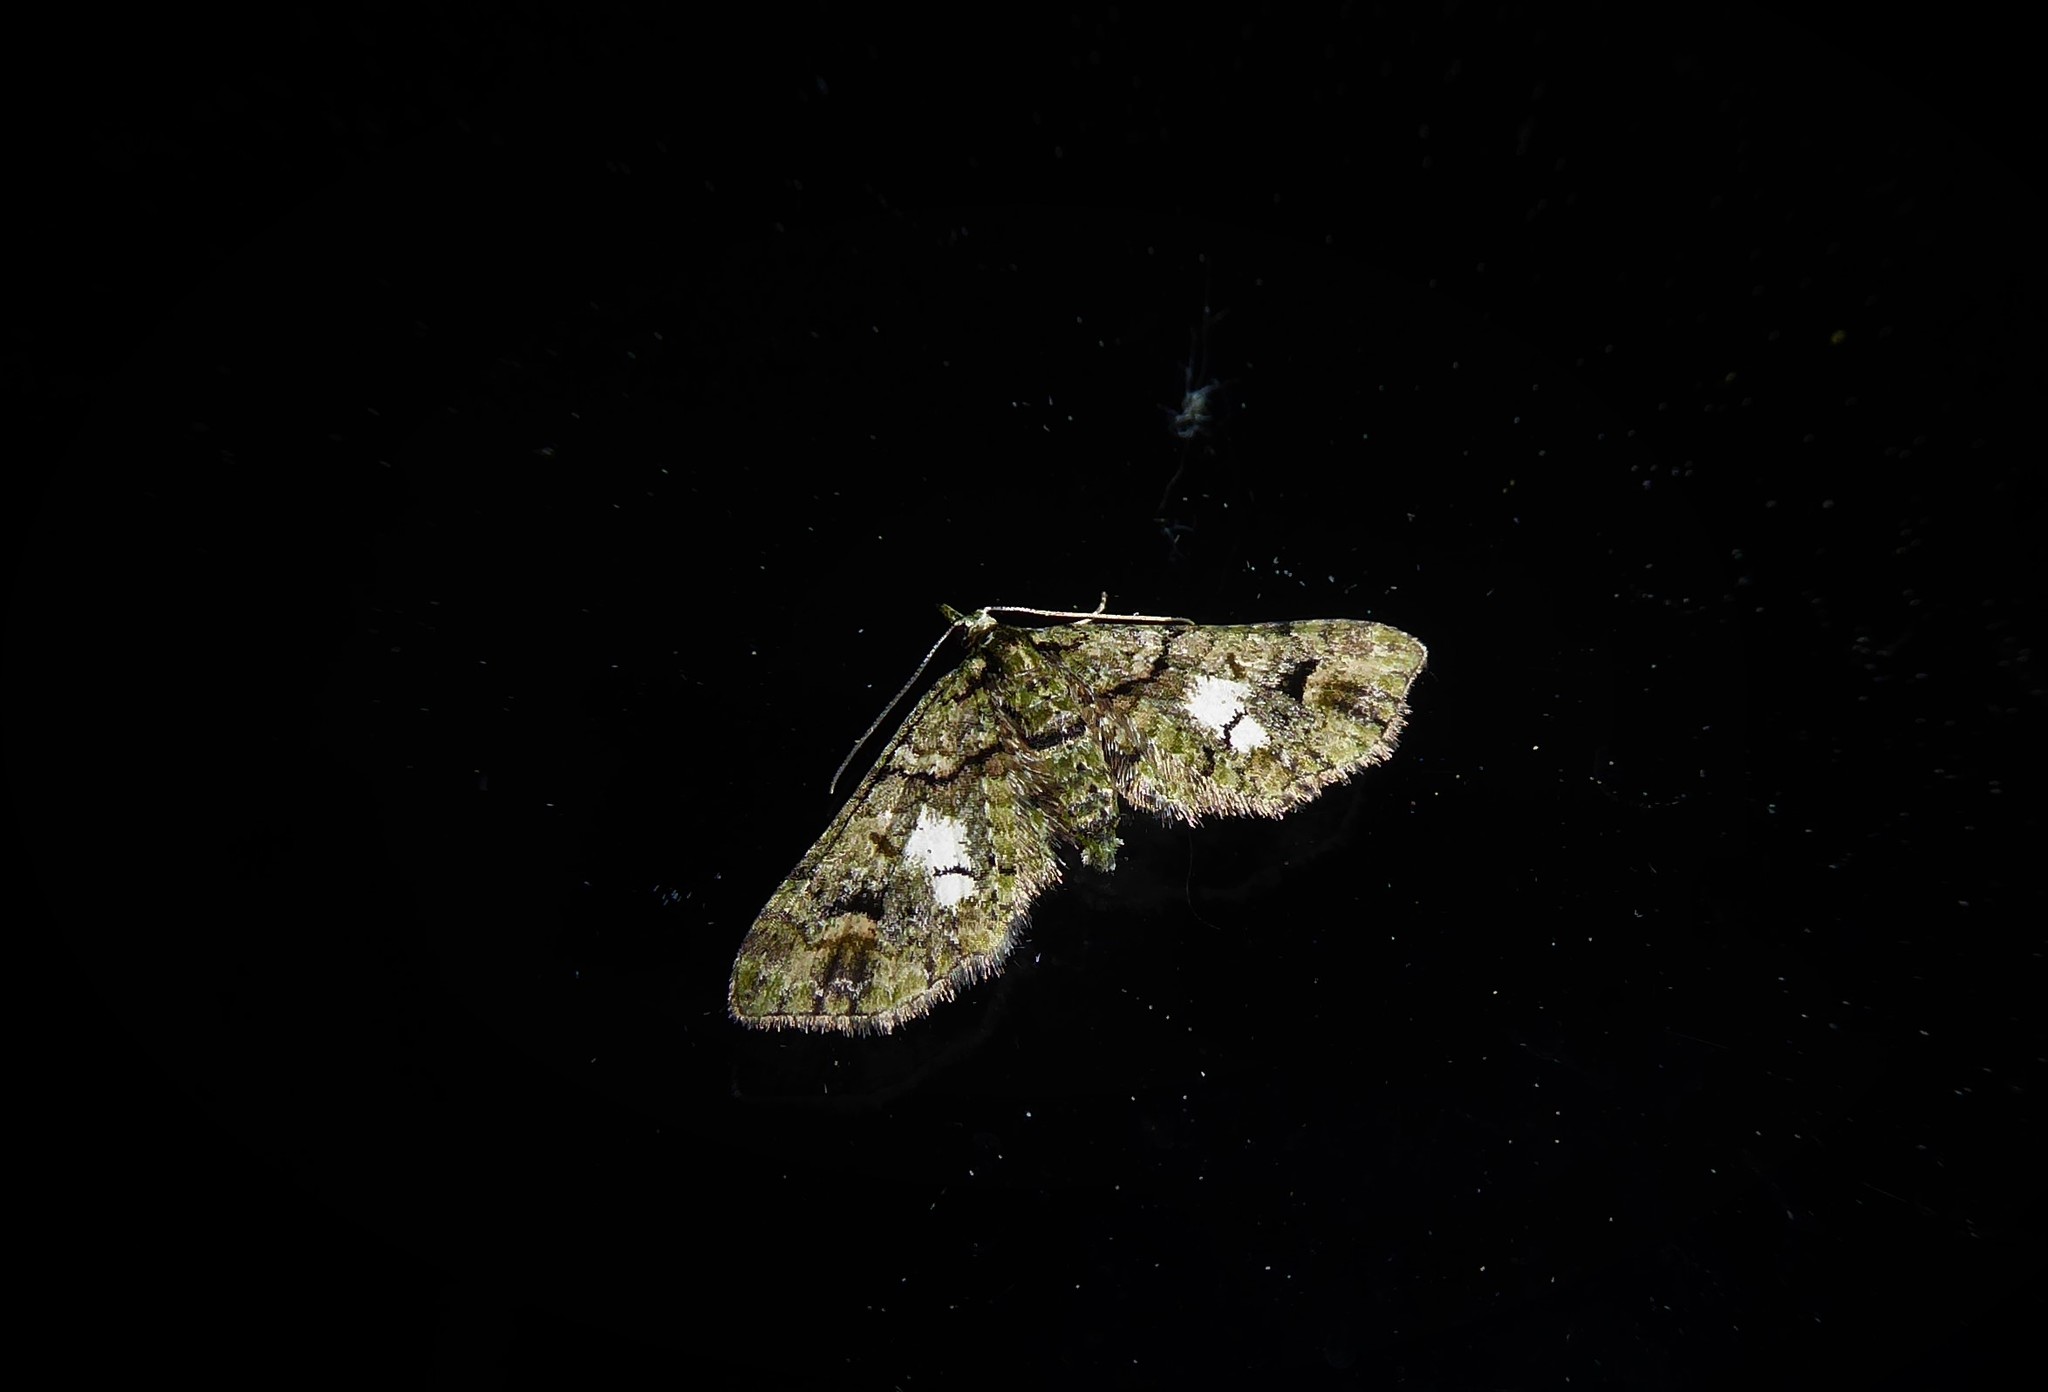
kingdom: Animalia
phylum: Arthropoda
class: Insecta
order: Lepidoptera
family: Geometridae
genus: Idaea
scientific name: Idaea mutanda
